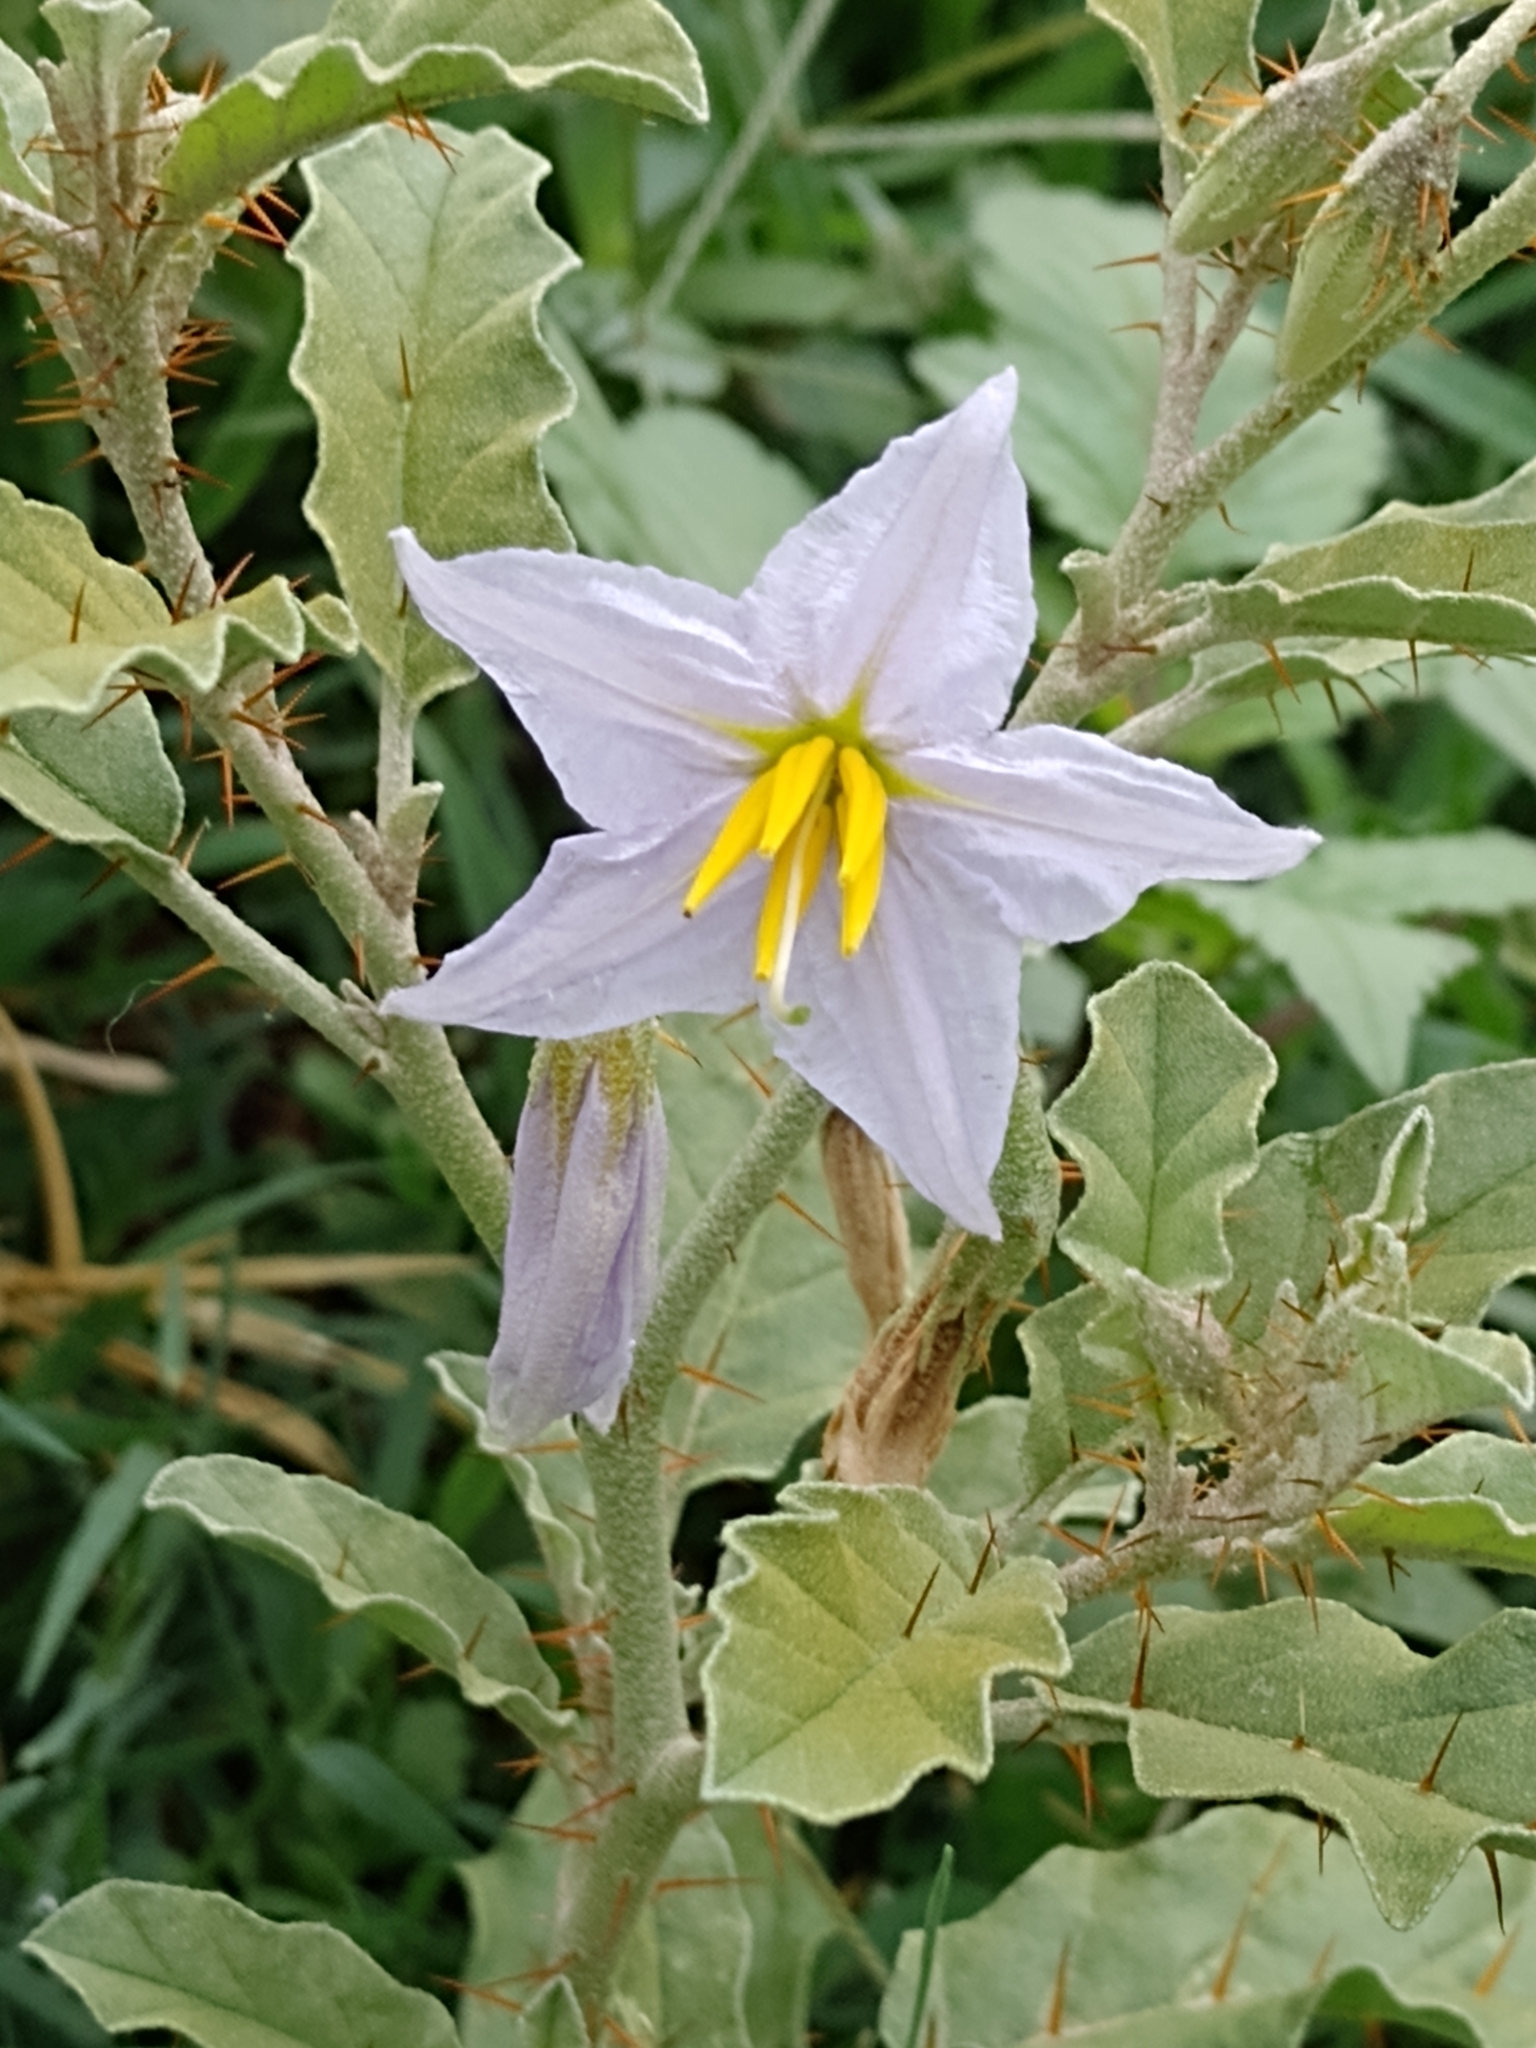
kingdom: Plantae
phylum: Tracheophyta
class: Magnoliopsida
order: Solanales
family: Solanaceae
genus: Solanum
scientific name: Solanum juvenale
